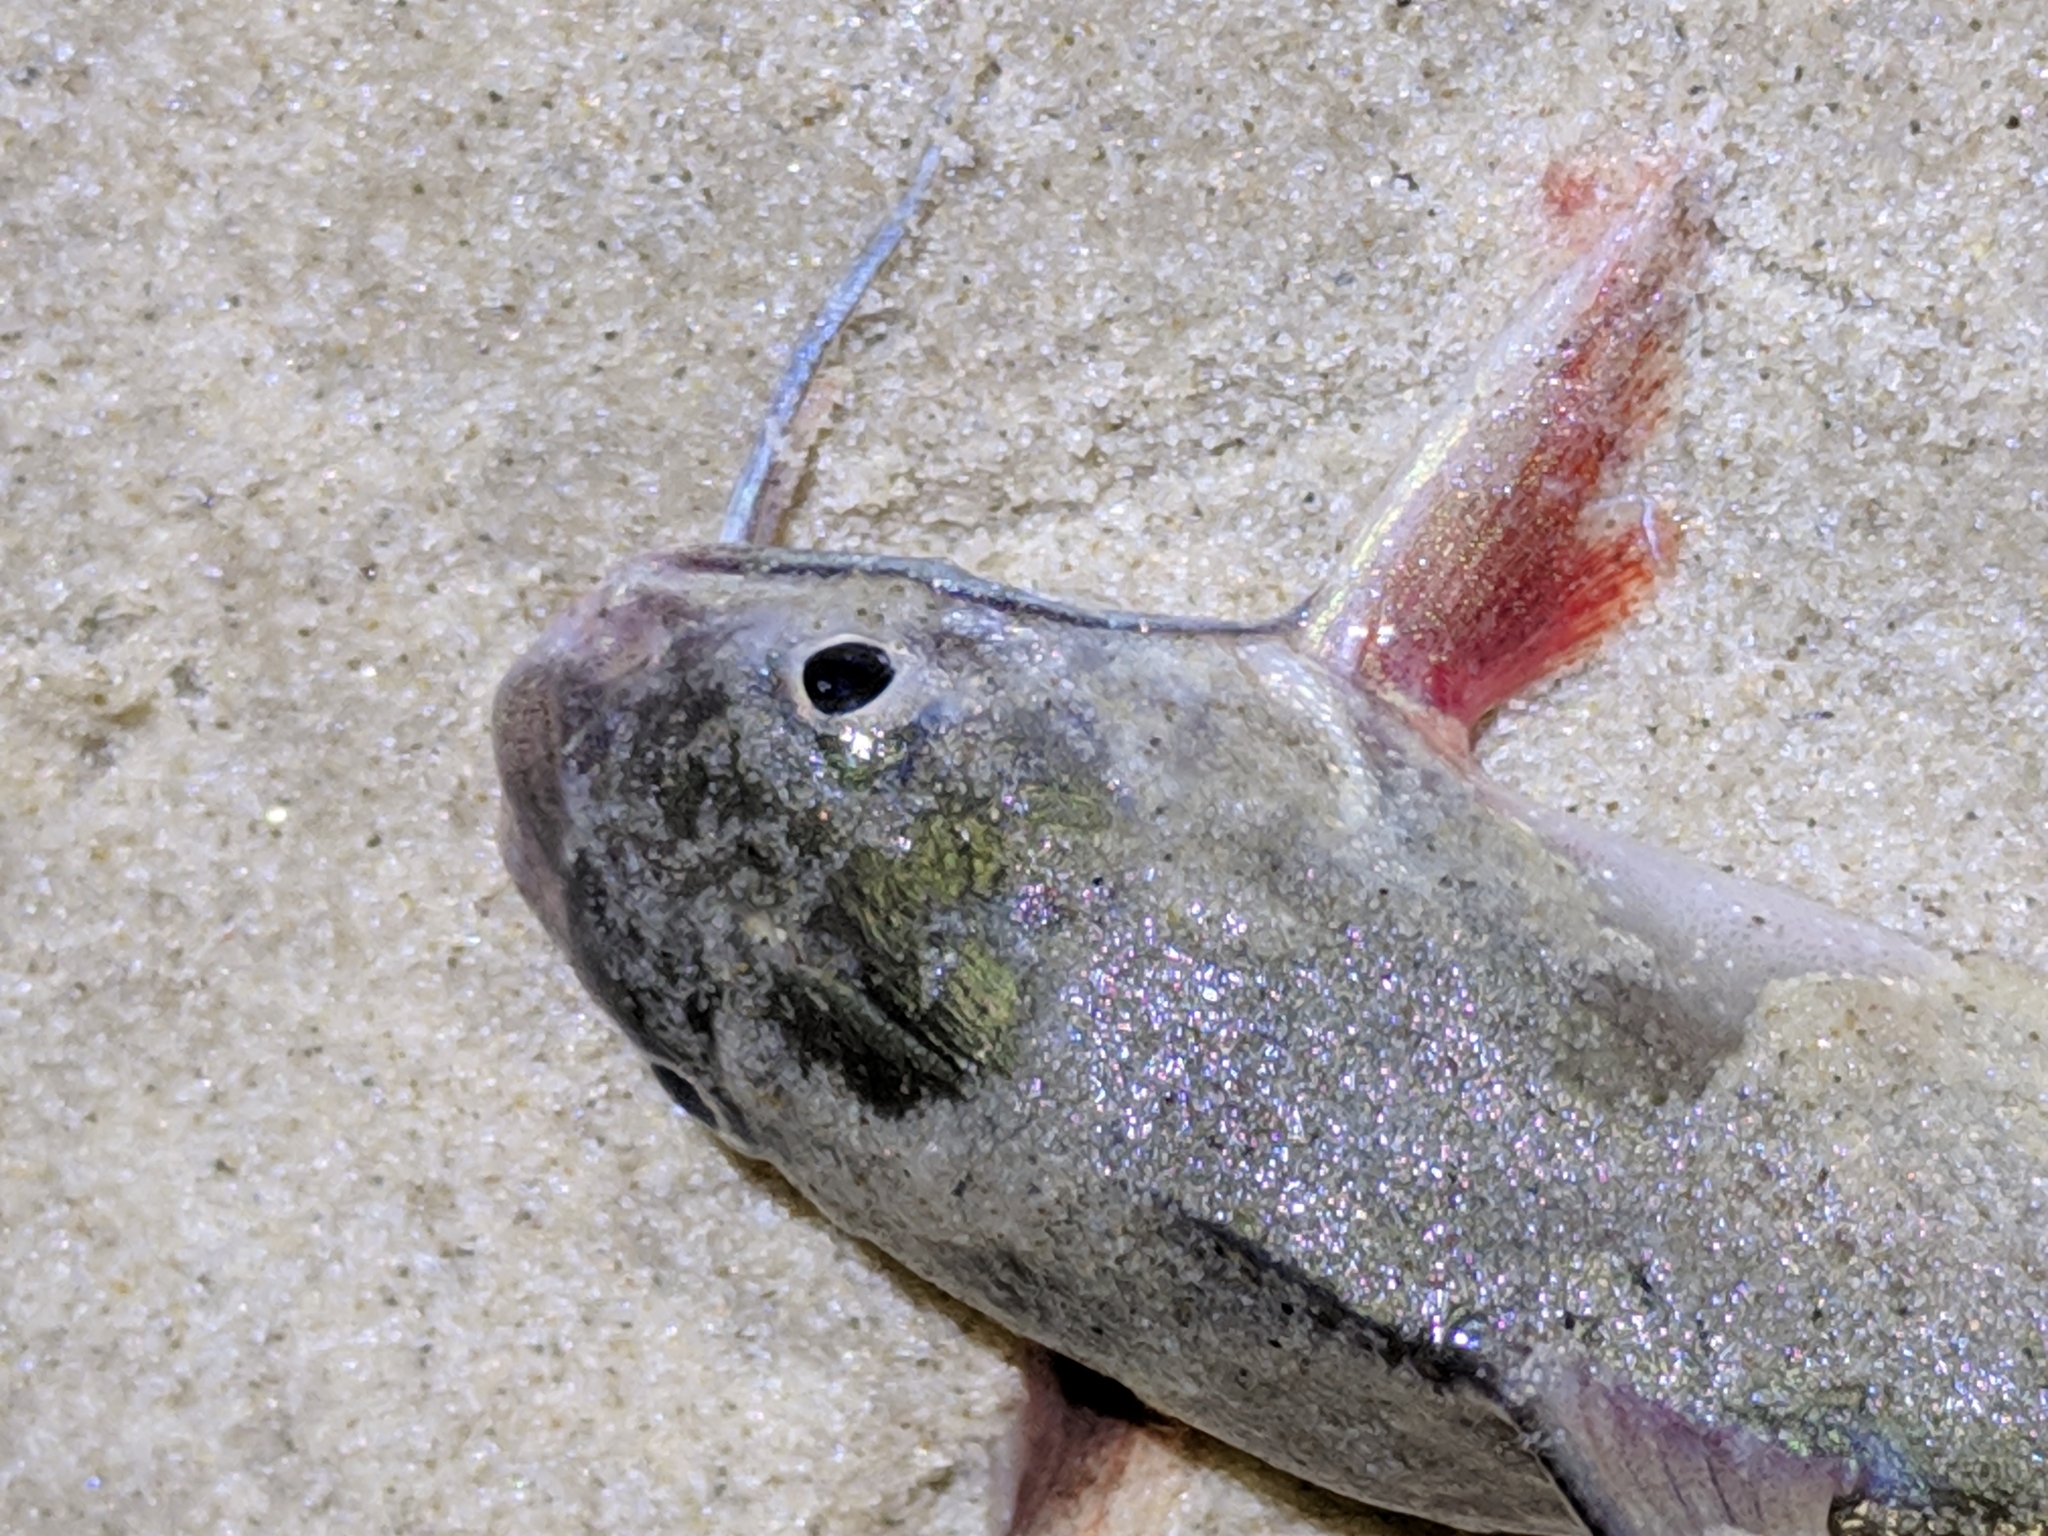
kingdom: Animalia
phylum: Chordata
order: Siluriformes
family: Ariidae
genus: Ariopsis
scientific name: Ariopsis felis
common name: Hardhead catfish
